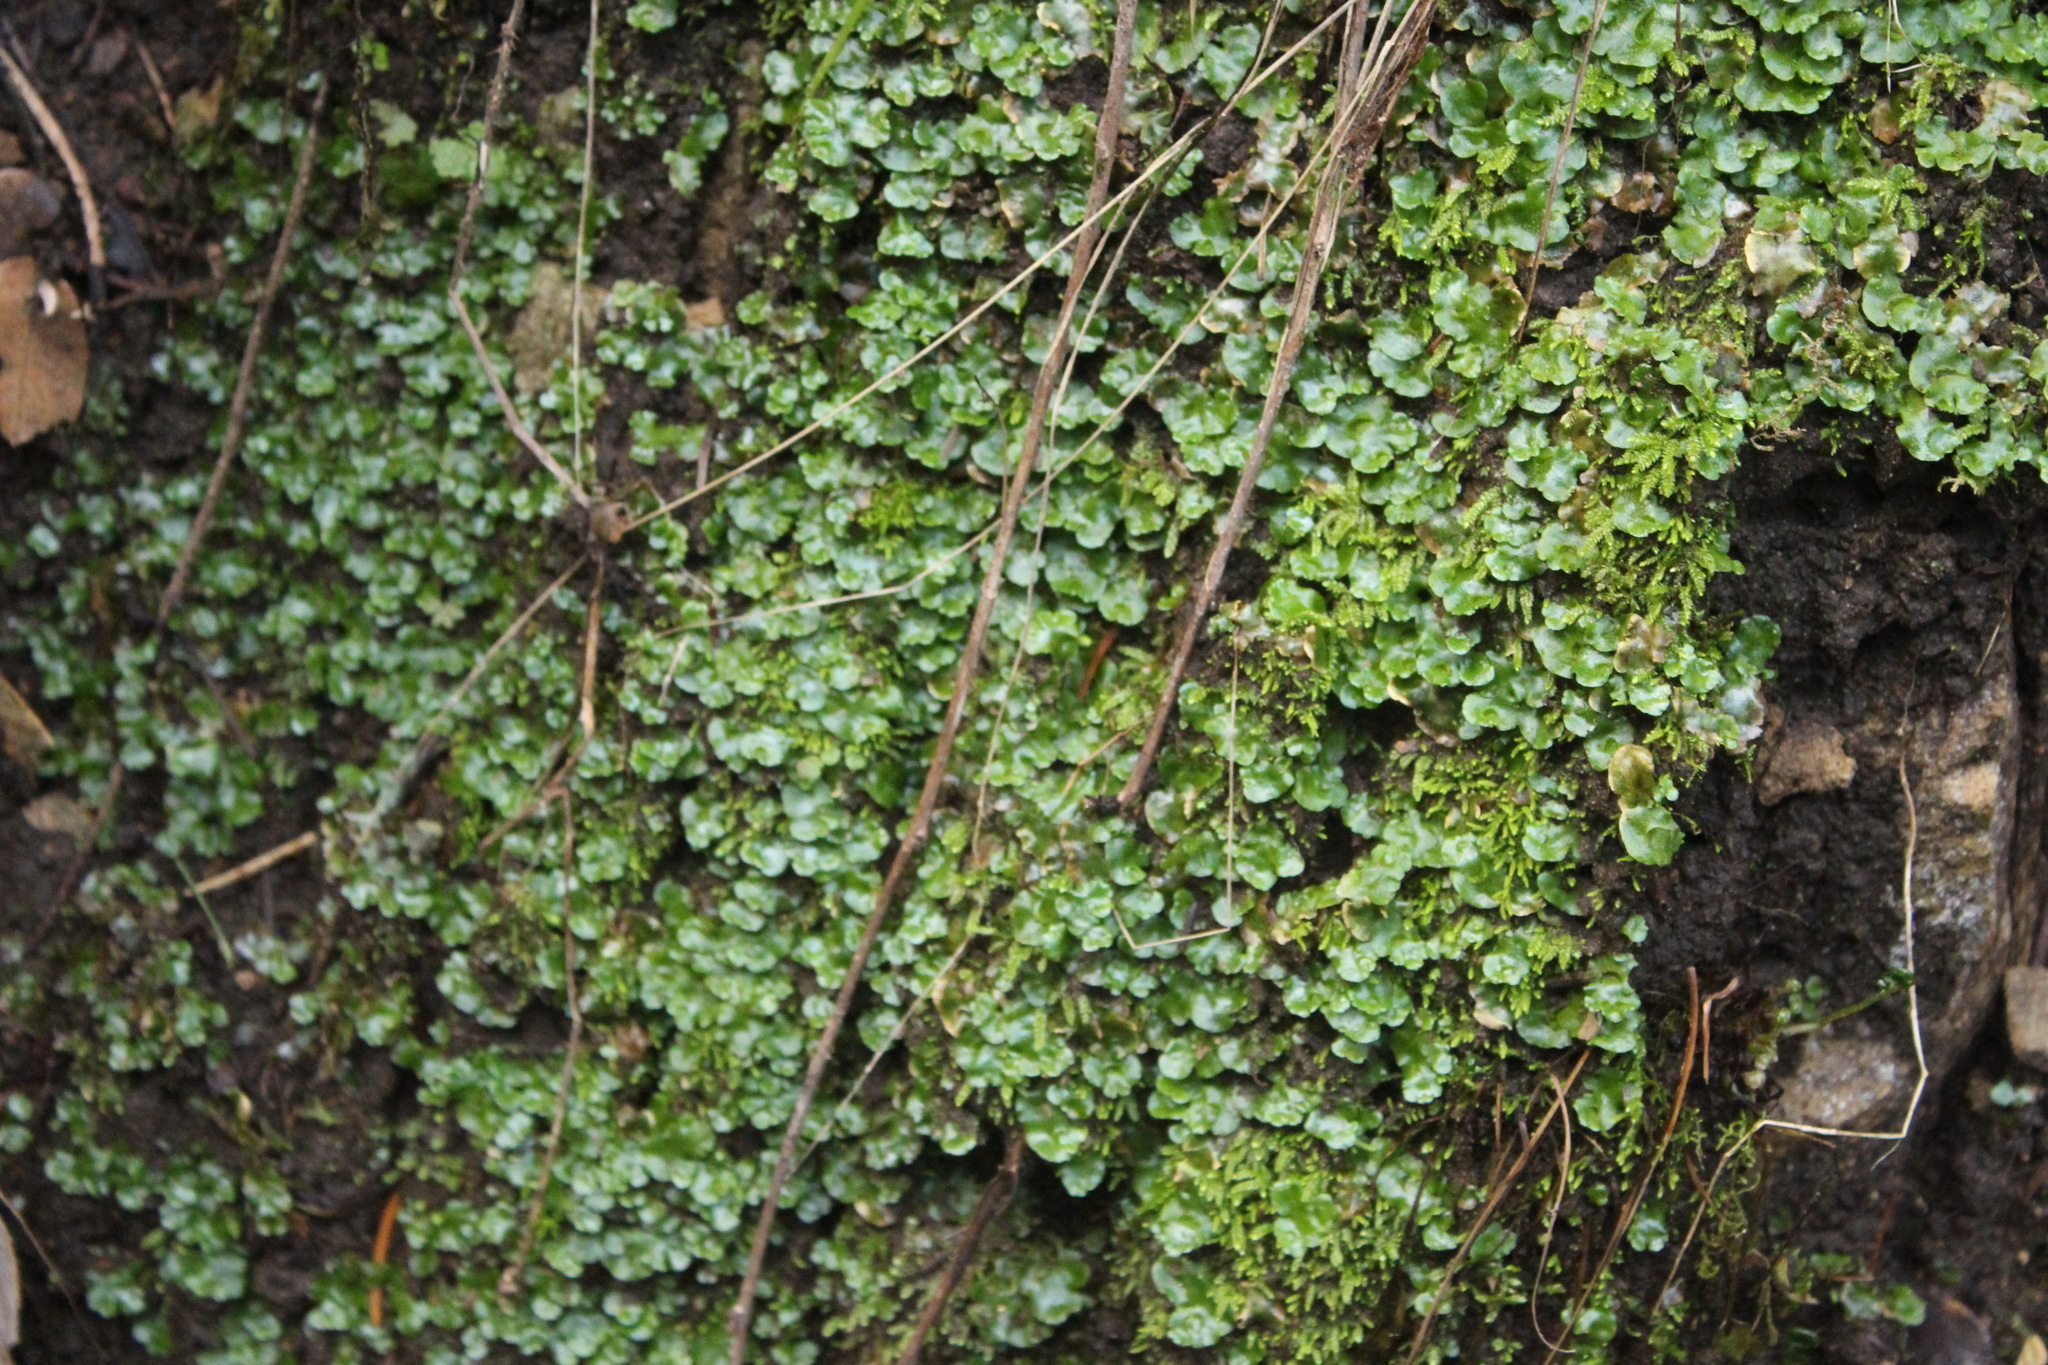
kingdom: Plantae
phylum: Marchantiophyta
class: Marchantiopsida
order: Lunulariales
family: Lunulariaceae
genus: Lunularia
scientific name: Lunularia cruciata
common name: Crescent-cup liverwort
